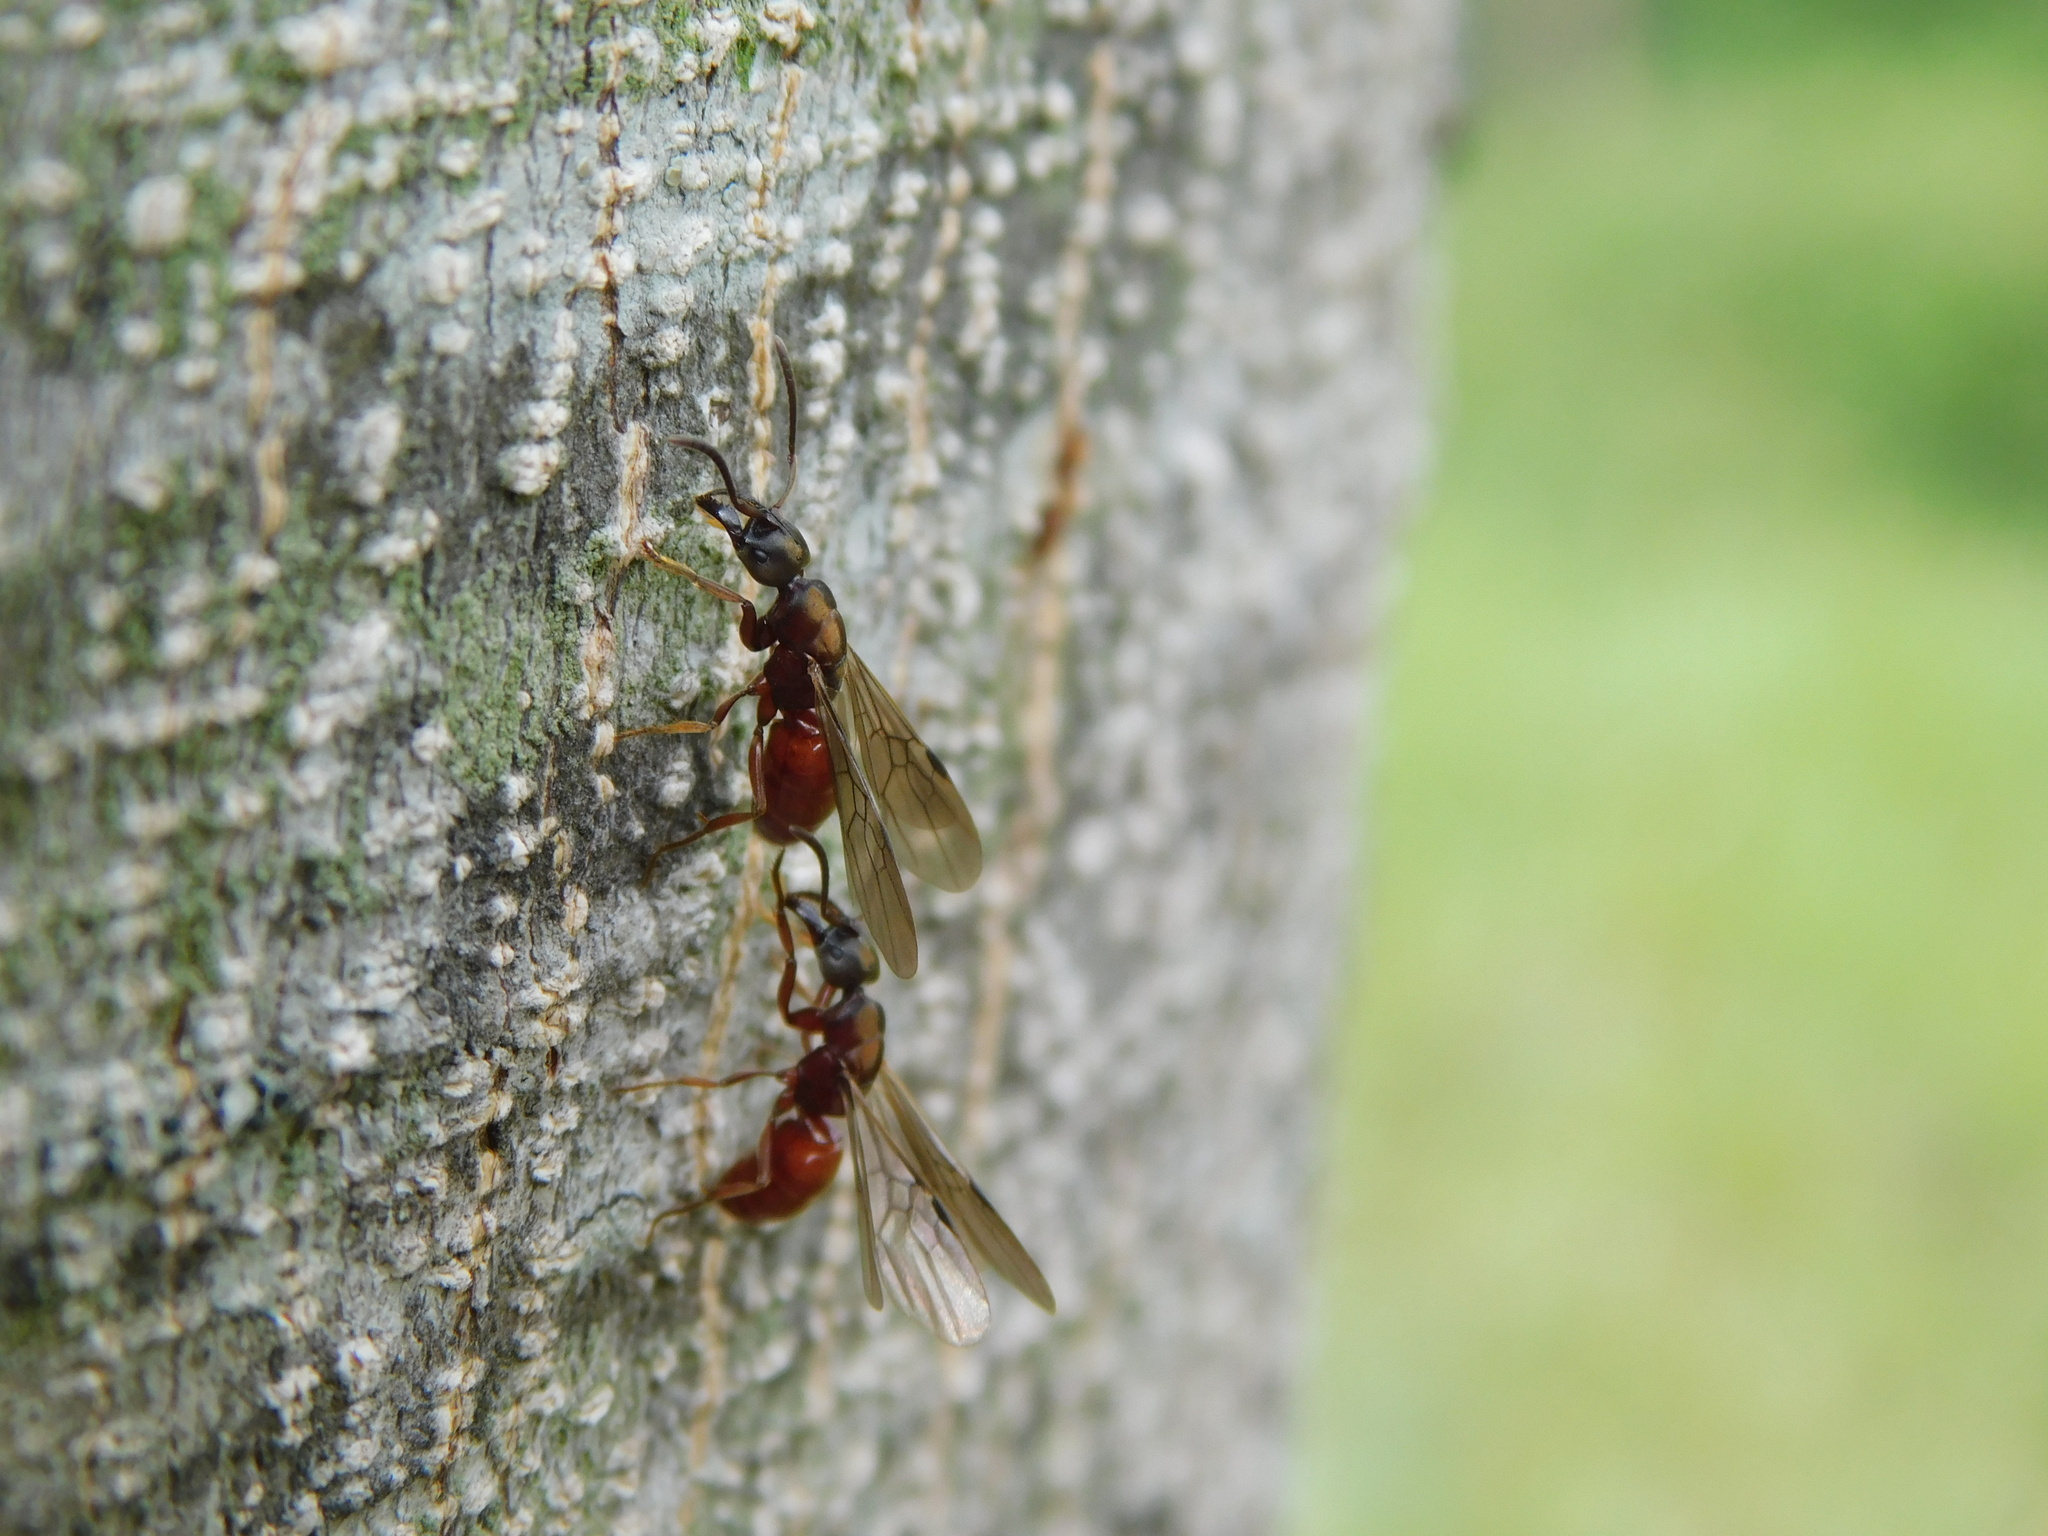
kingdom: Animalia
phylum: Arthropoda
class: Insecta
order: Hymenoptera
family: Formicidae
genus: Buniapone
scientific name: Buniapone
